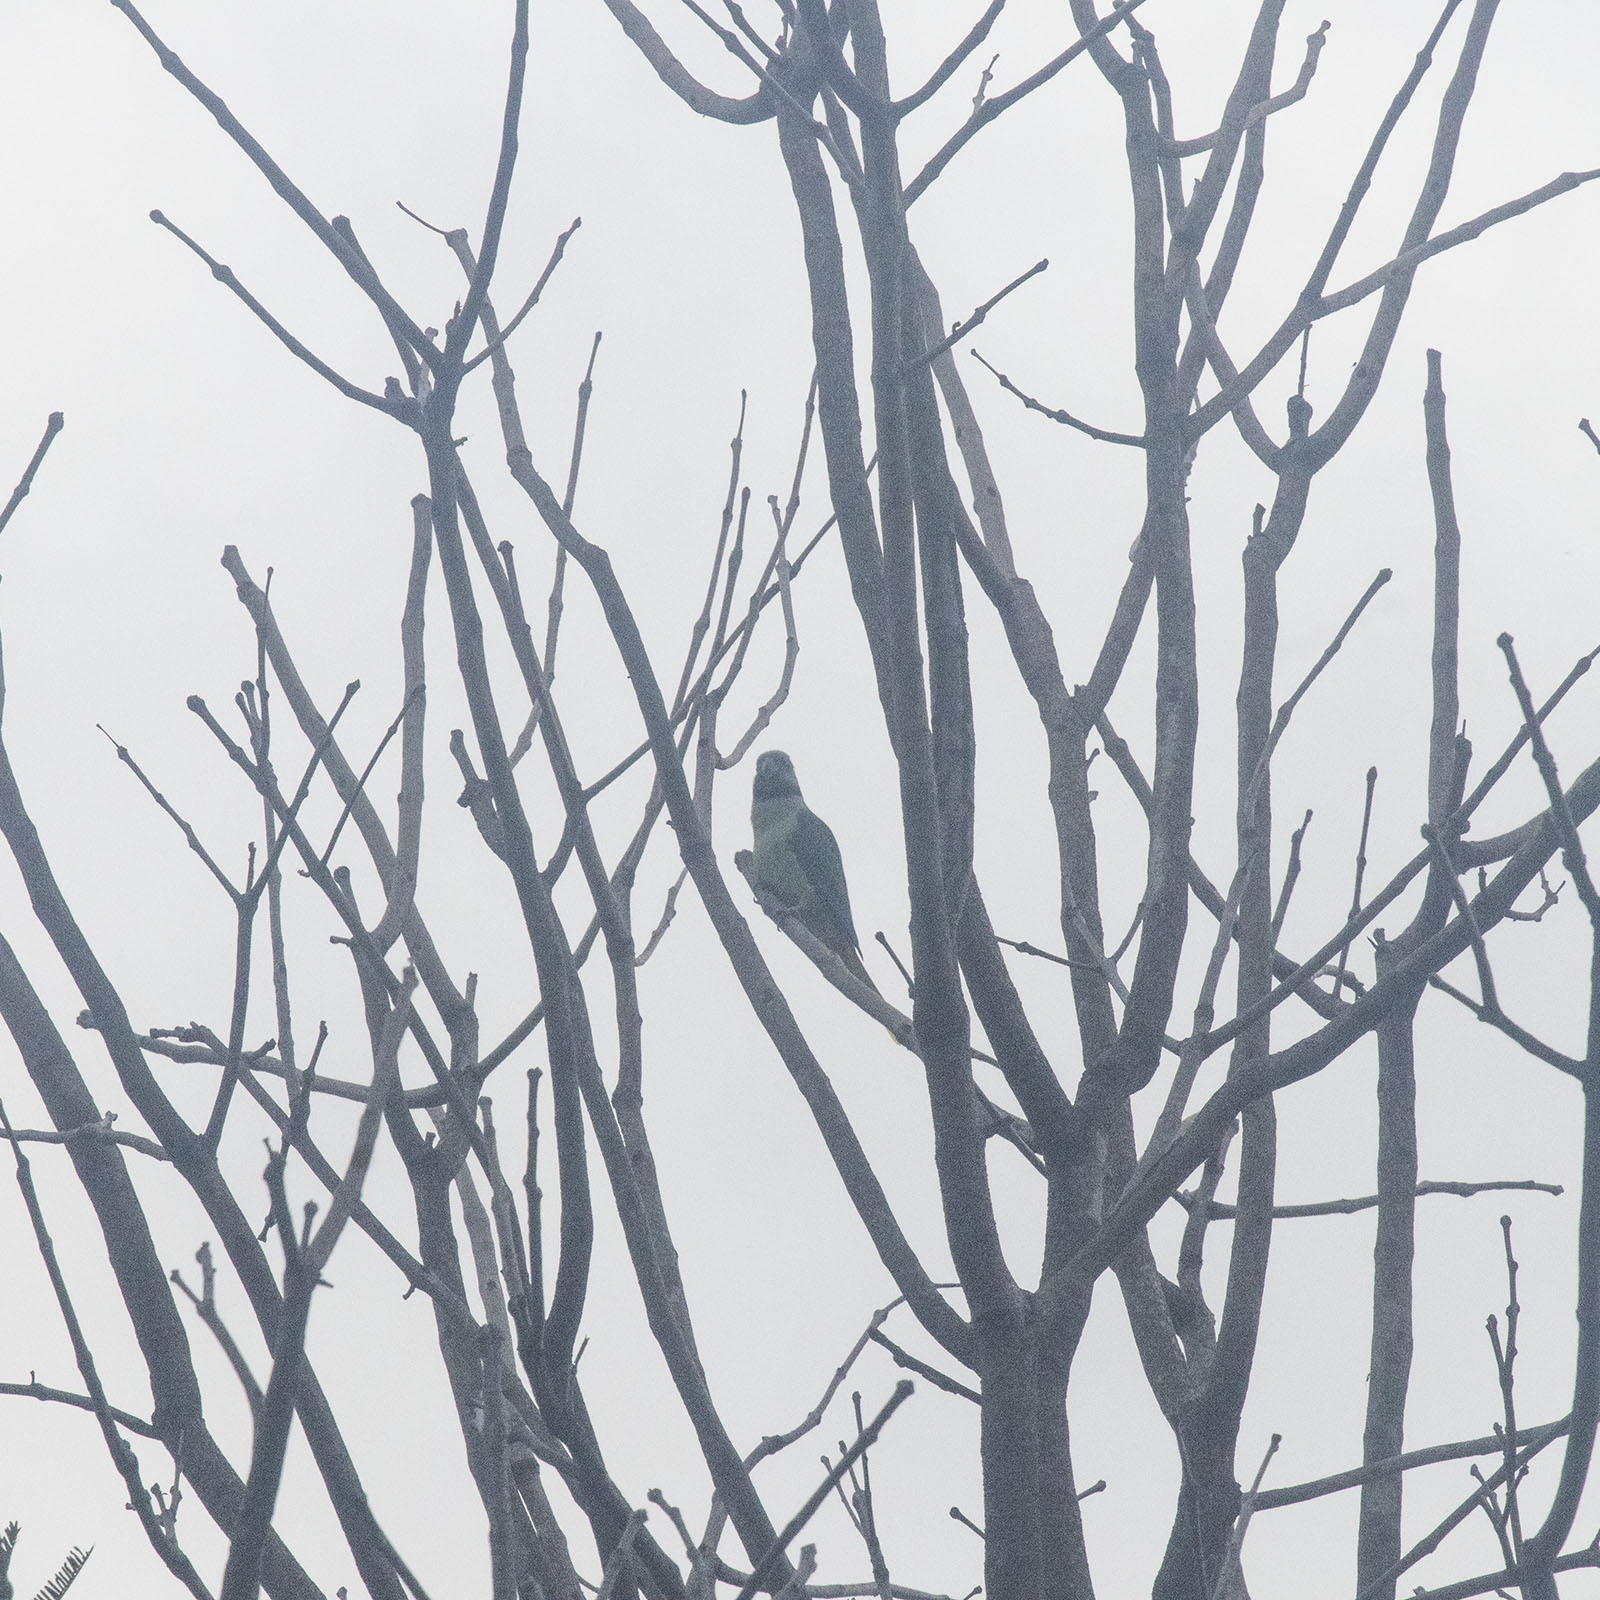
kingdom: Animalia
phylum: Chordata
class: Aves
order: Psittaciformes
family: Psittacidae
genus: Psittacula
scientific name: Psittacula columboides
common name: Blue-winged parakeet
